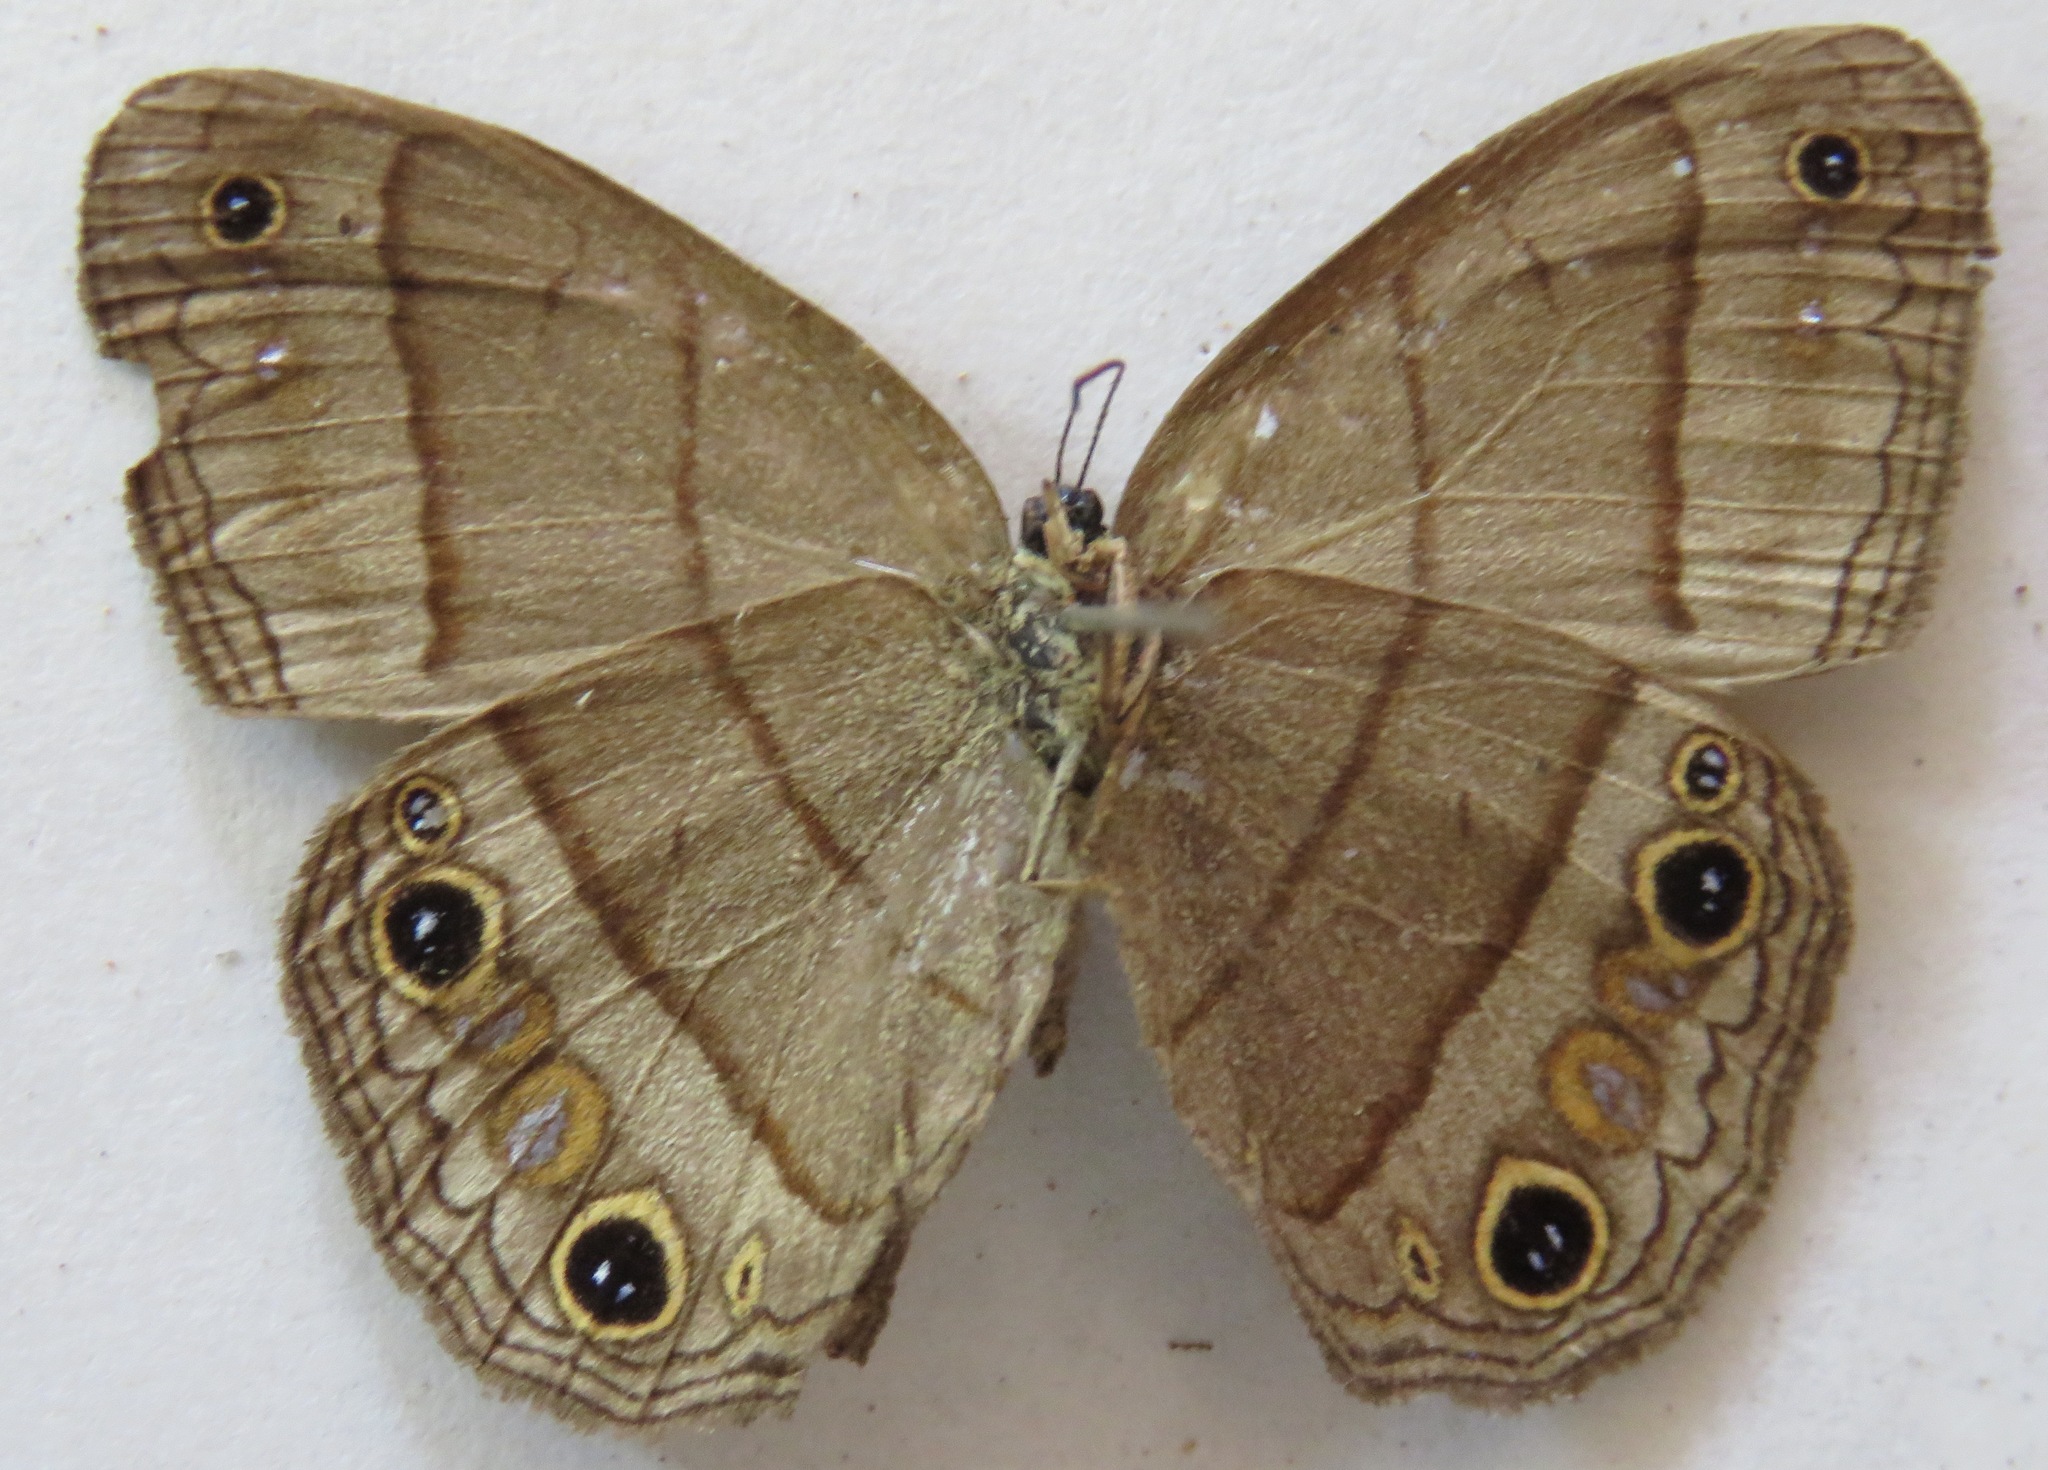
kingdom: Animalia
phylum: Arthropoda
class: Insecta
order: Lepidoptera
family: Nymphalidae
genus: Euptychia
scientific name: Euptychia Cissia pompilia
